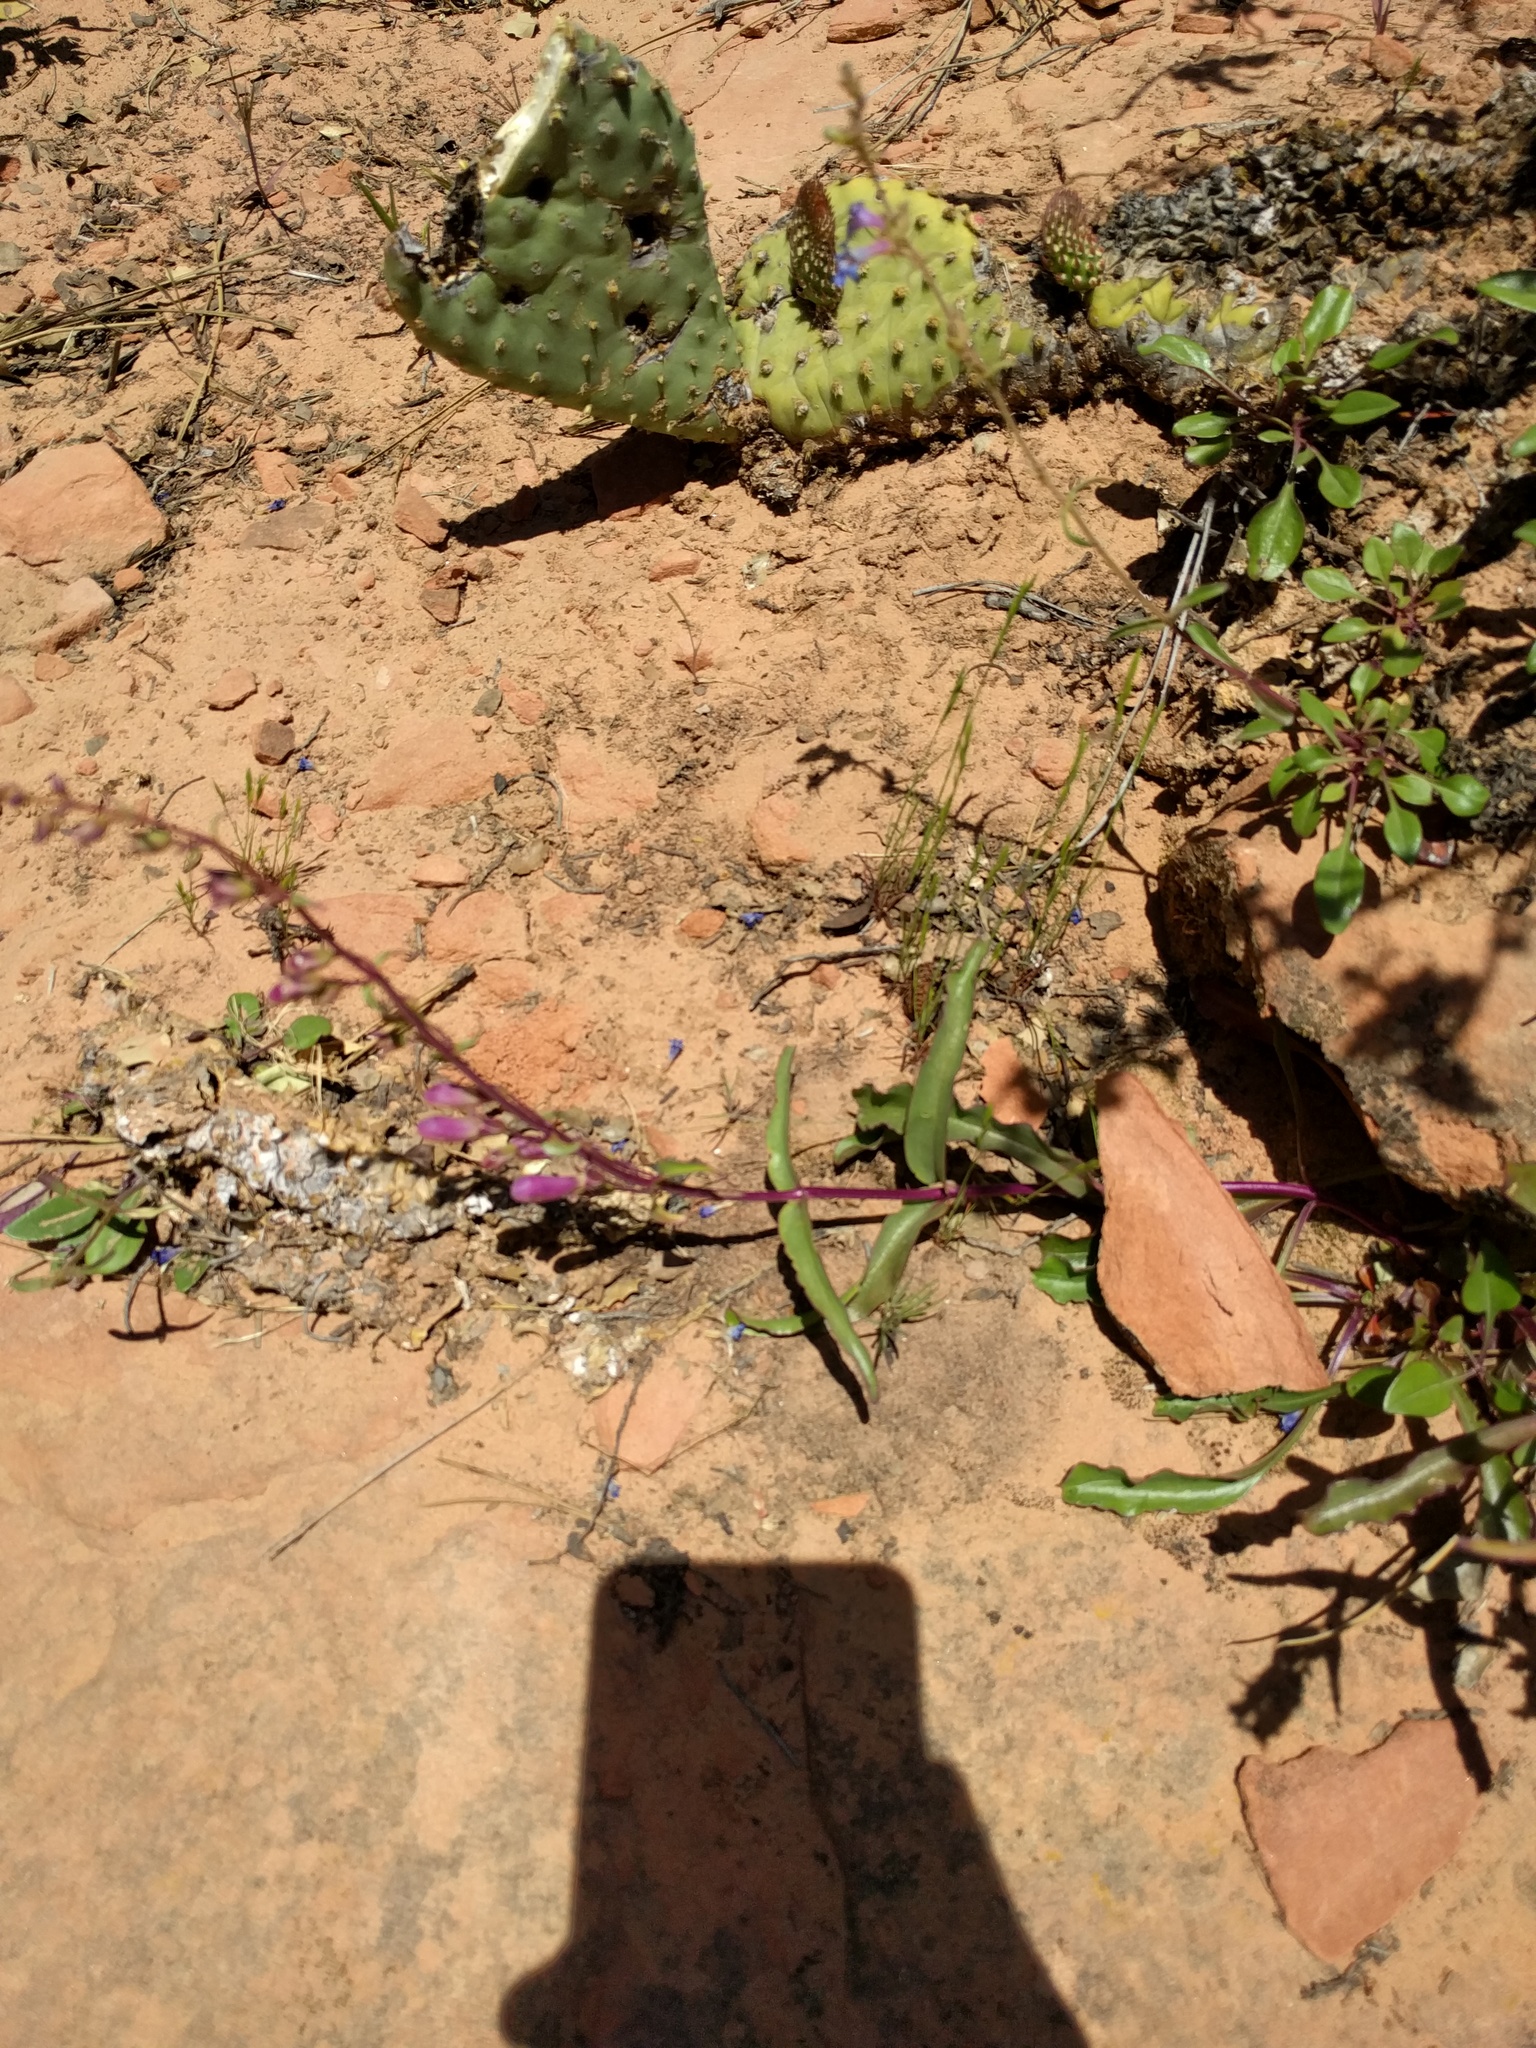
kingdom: Plantae
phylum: Tracheophyta
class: Magnoliopsida
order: Lamiales
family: Plantaginaceae
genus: Penstemon
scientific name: Penstemon jonesii
